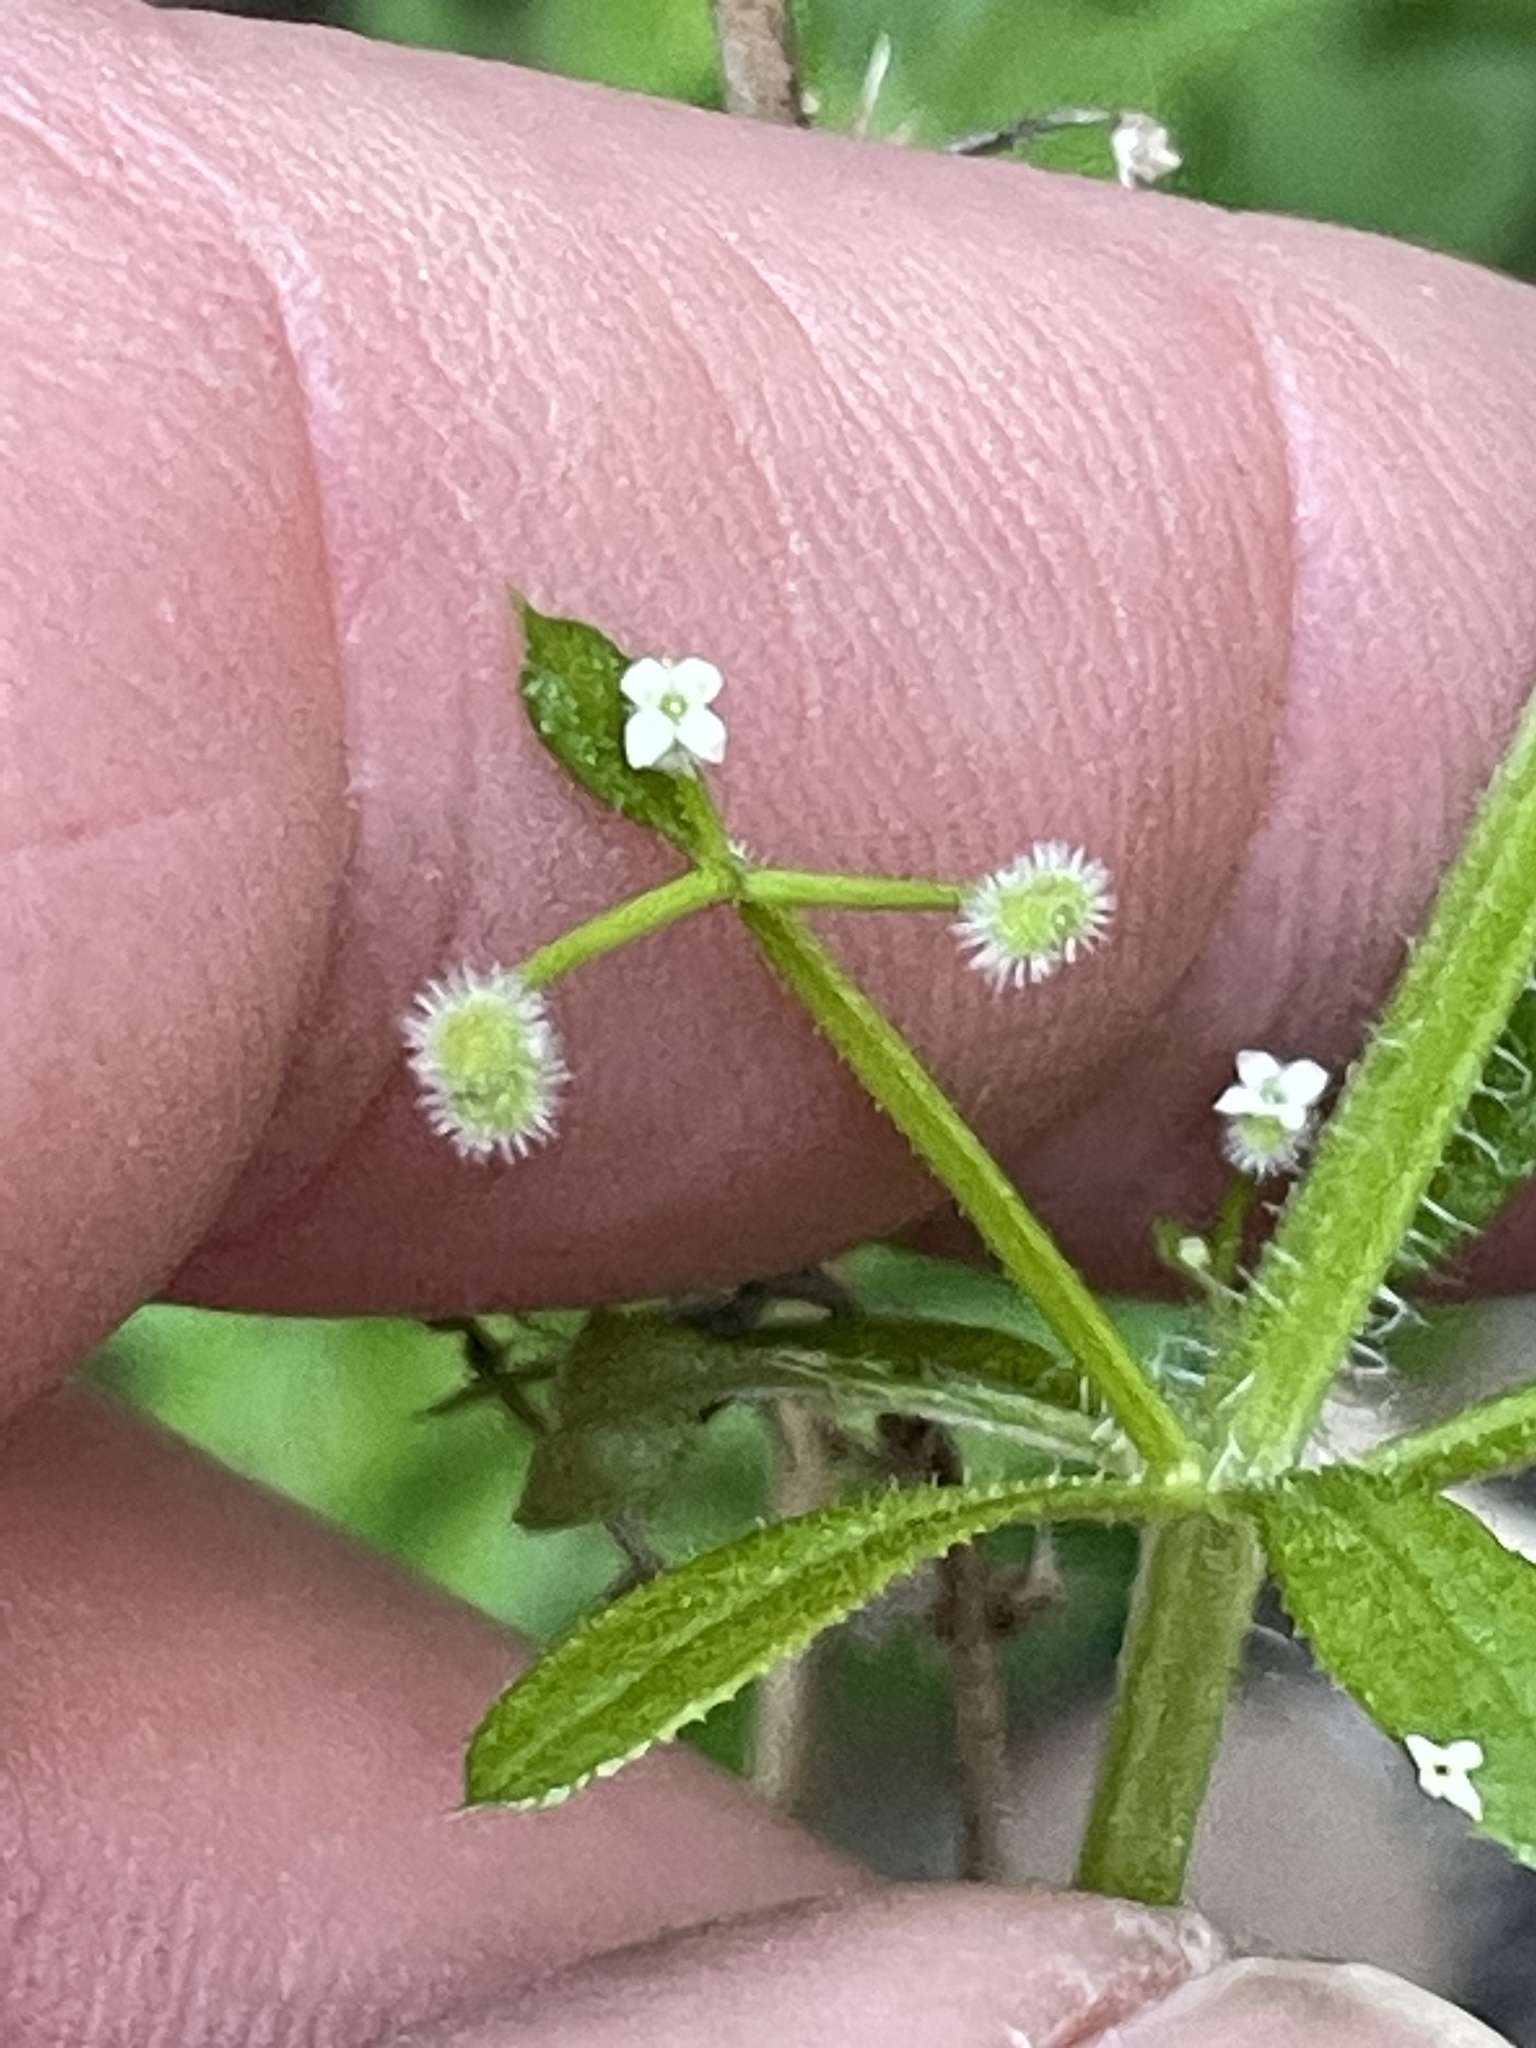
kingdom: Plantae
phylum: Tracheophyta
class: Magnoliopsida
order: Gentianales
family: Rubiaceae
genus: Galium
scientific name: Galium aparine
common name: Cleavers
